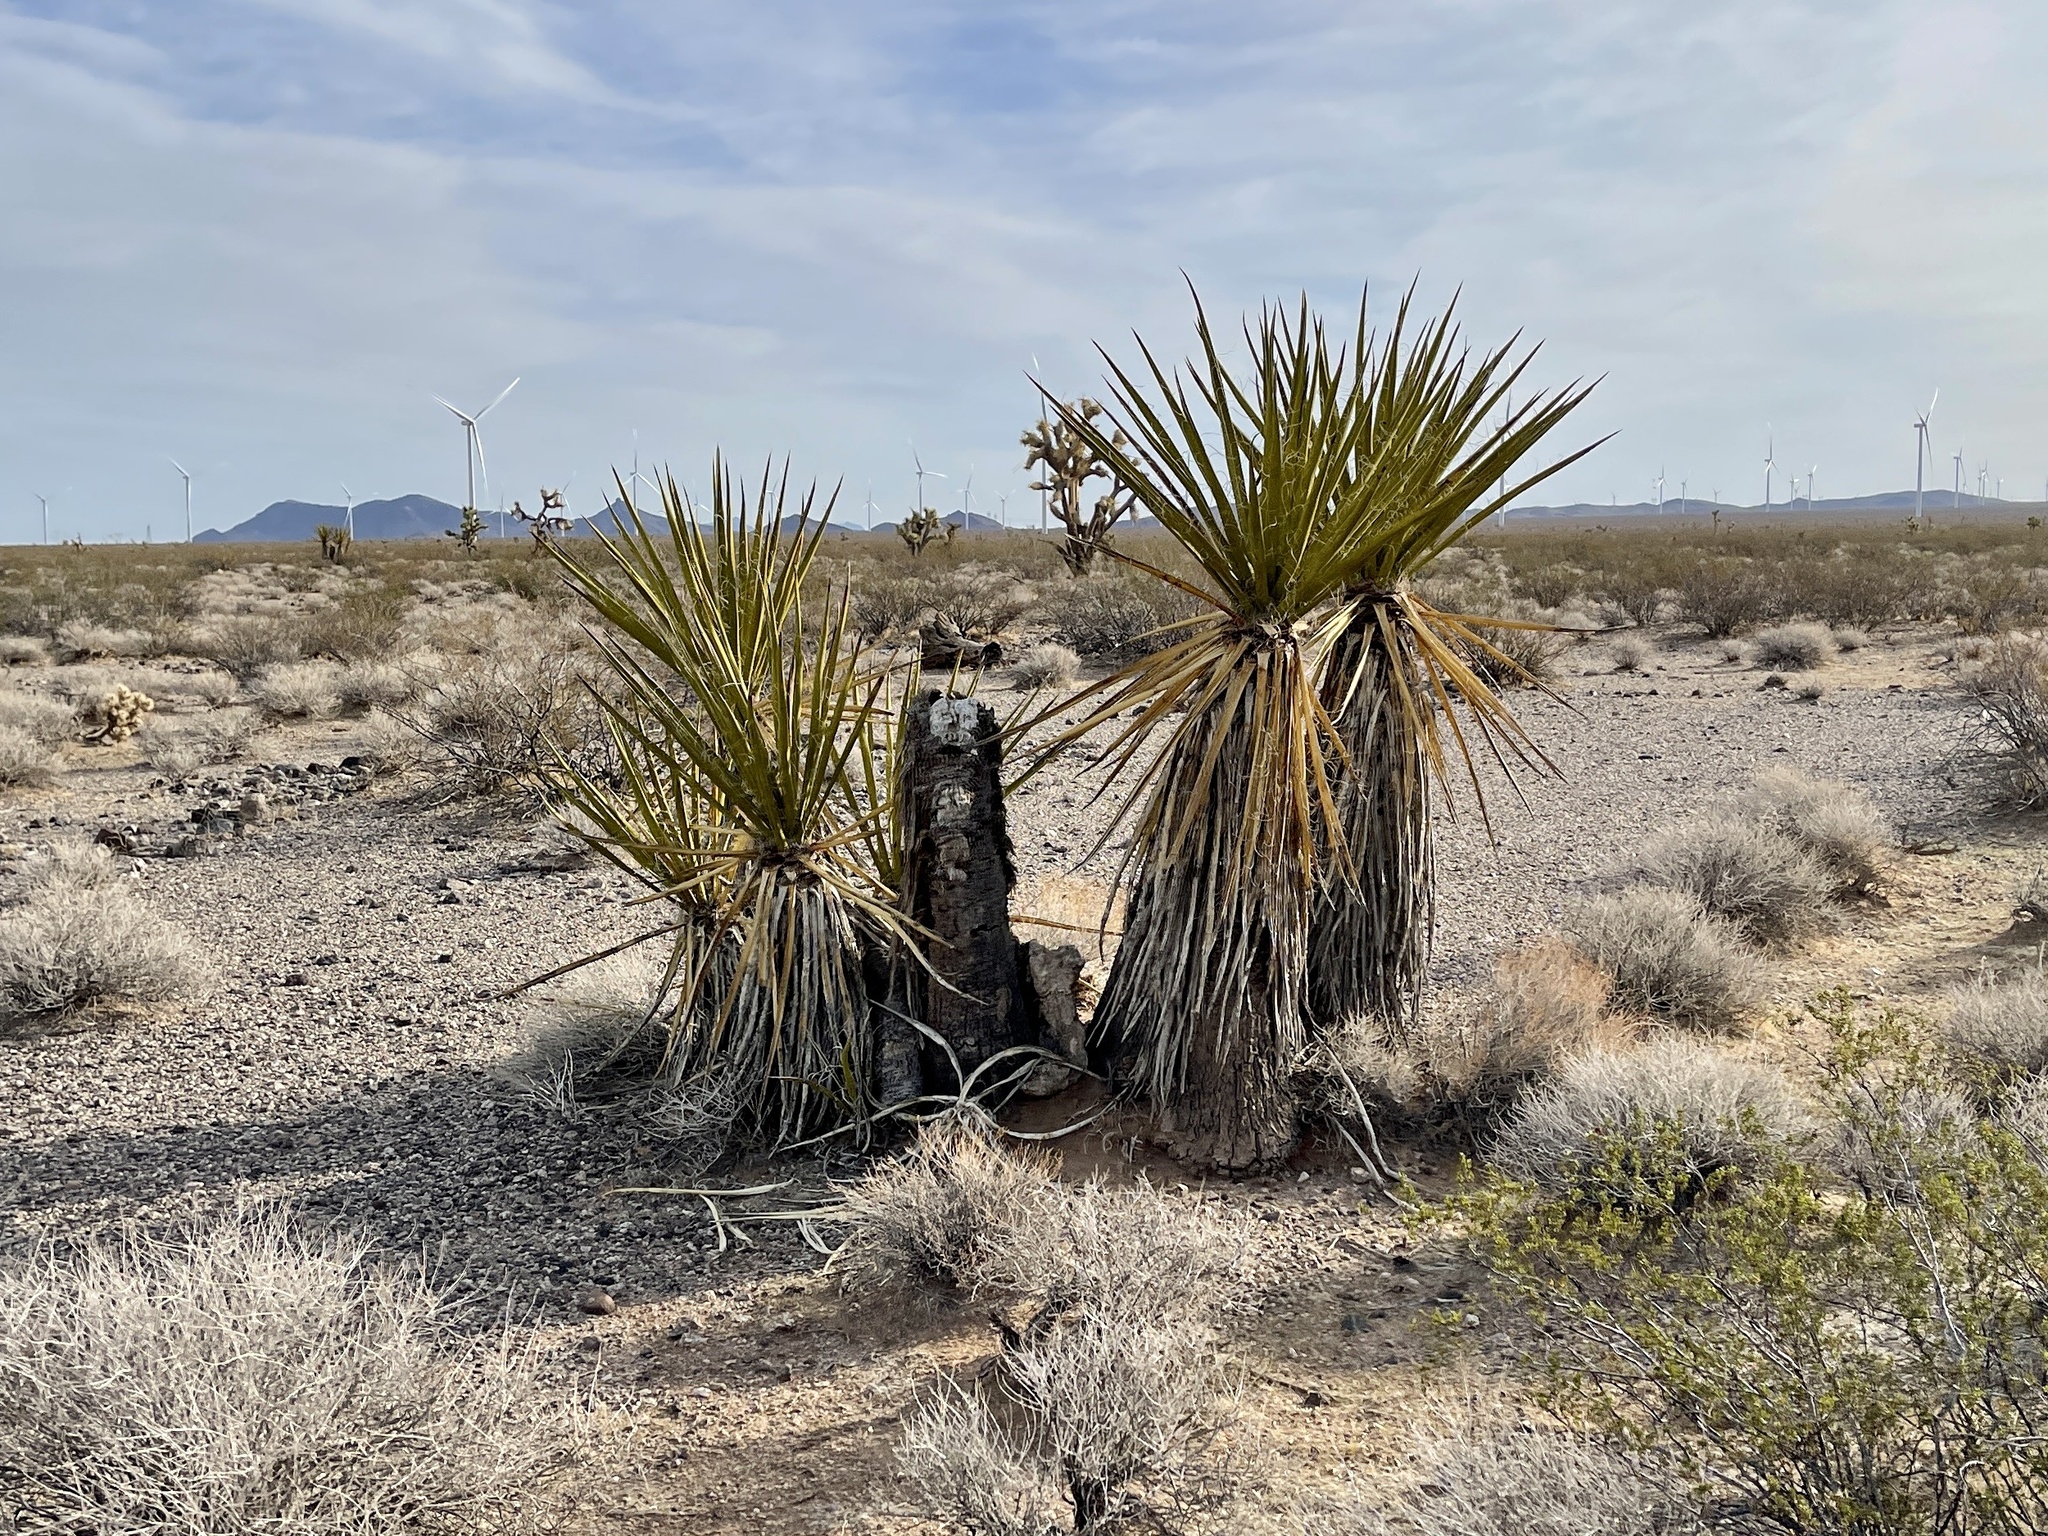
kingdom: Plantae
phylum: Tracheophyta
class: Liliopsida
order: Asparagales
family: Asparagaceae
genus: Yucca
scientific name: Yucca schidigera
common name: Mojave yucca
